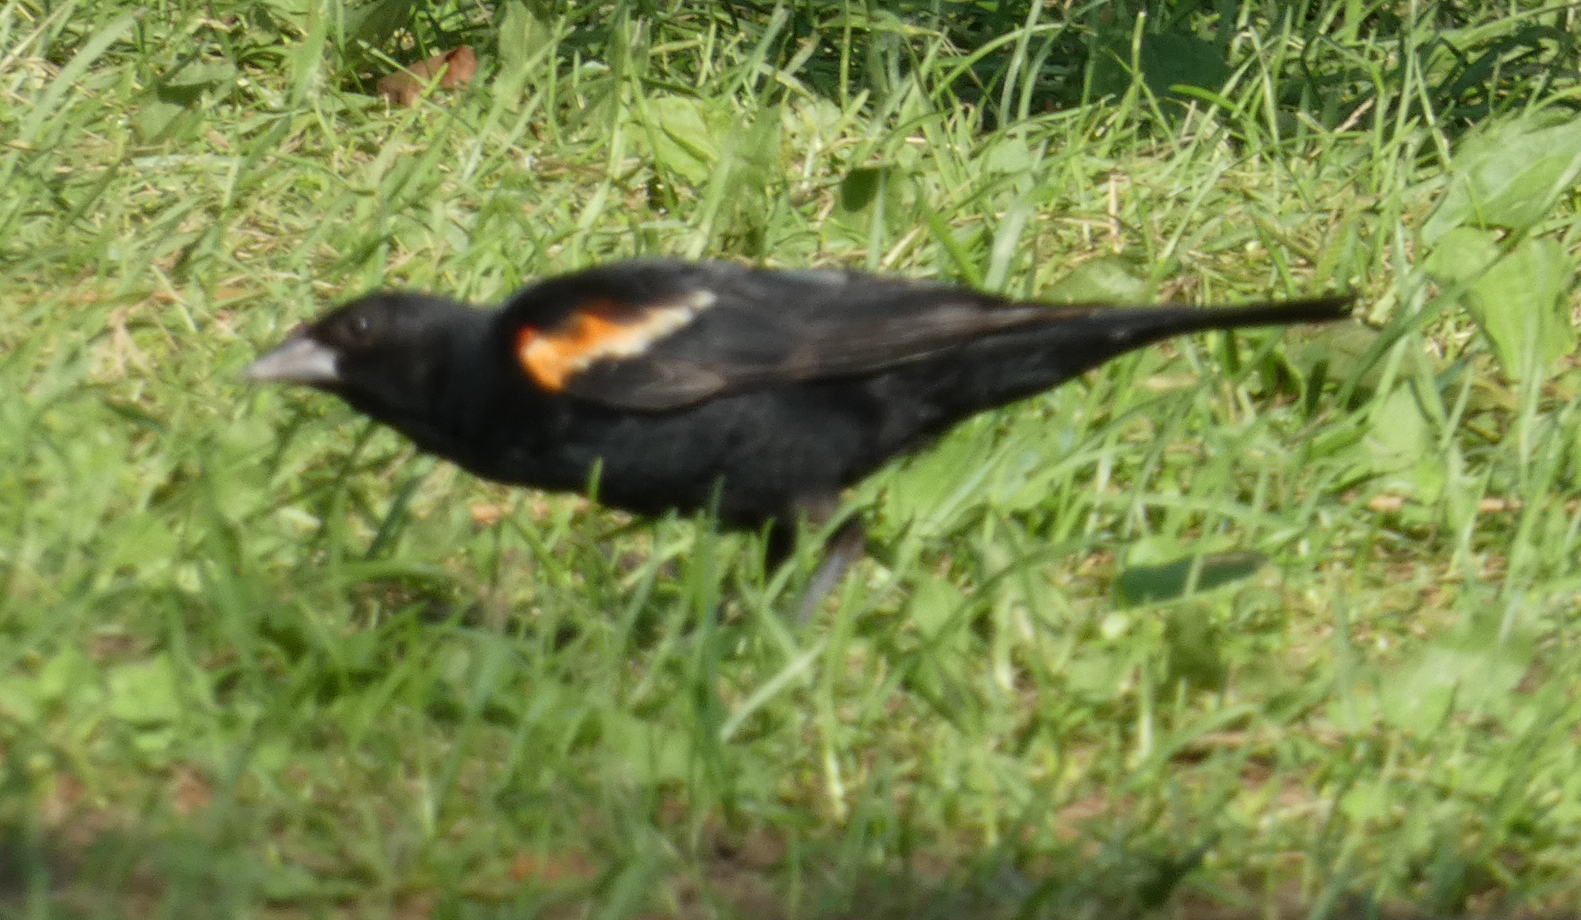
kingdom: Animalia
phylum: Chordata
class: Aves
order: Passeriformes
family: Icteridae
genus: Agelaius
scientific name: Agelaius phoeniceus
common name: Red-winged blackbird
